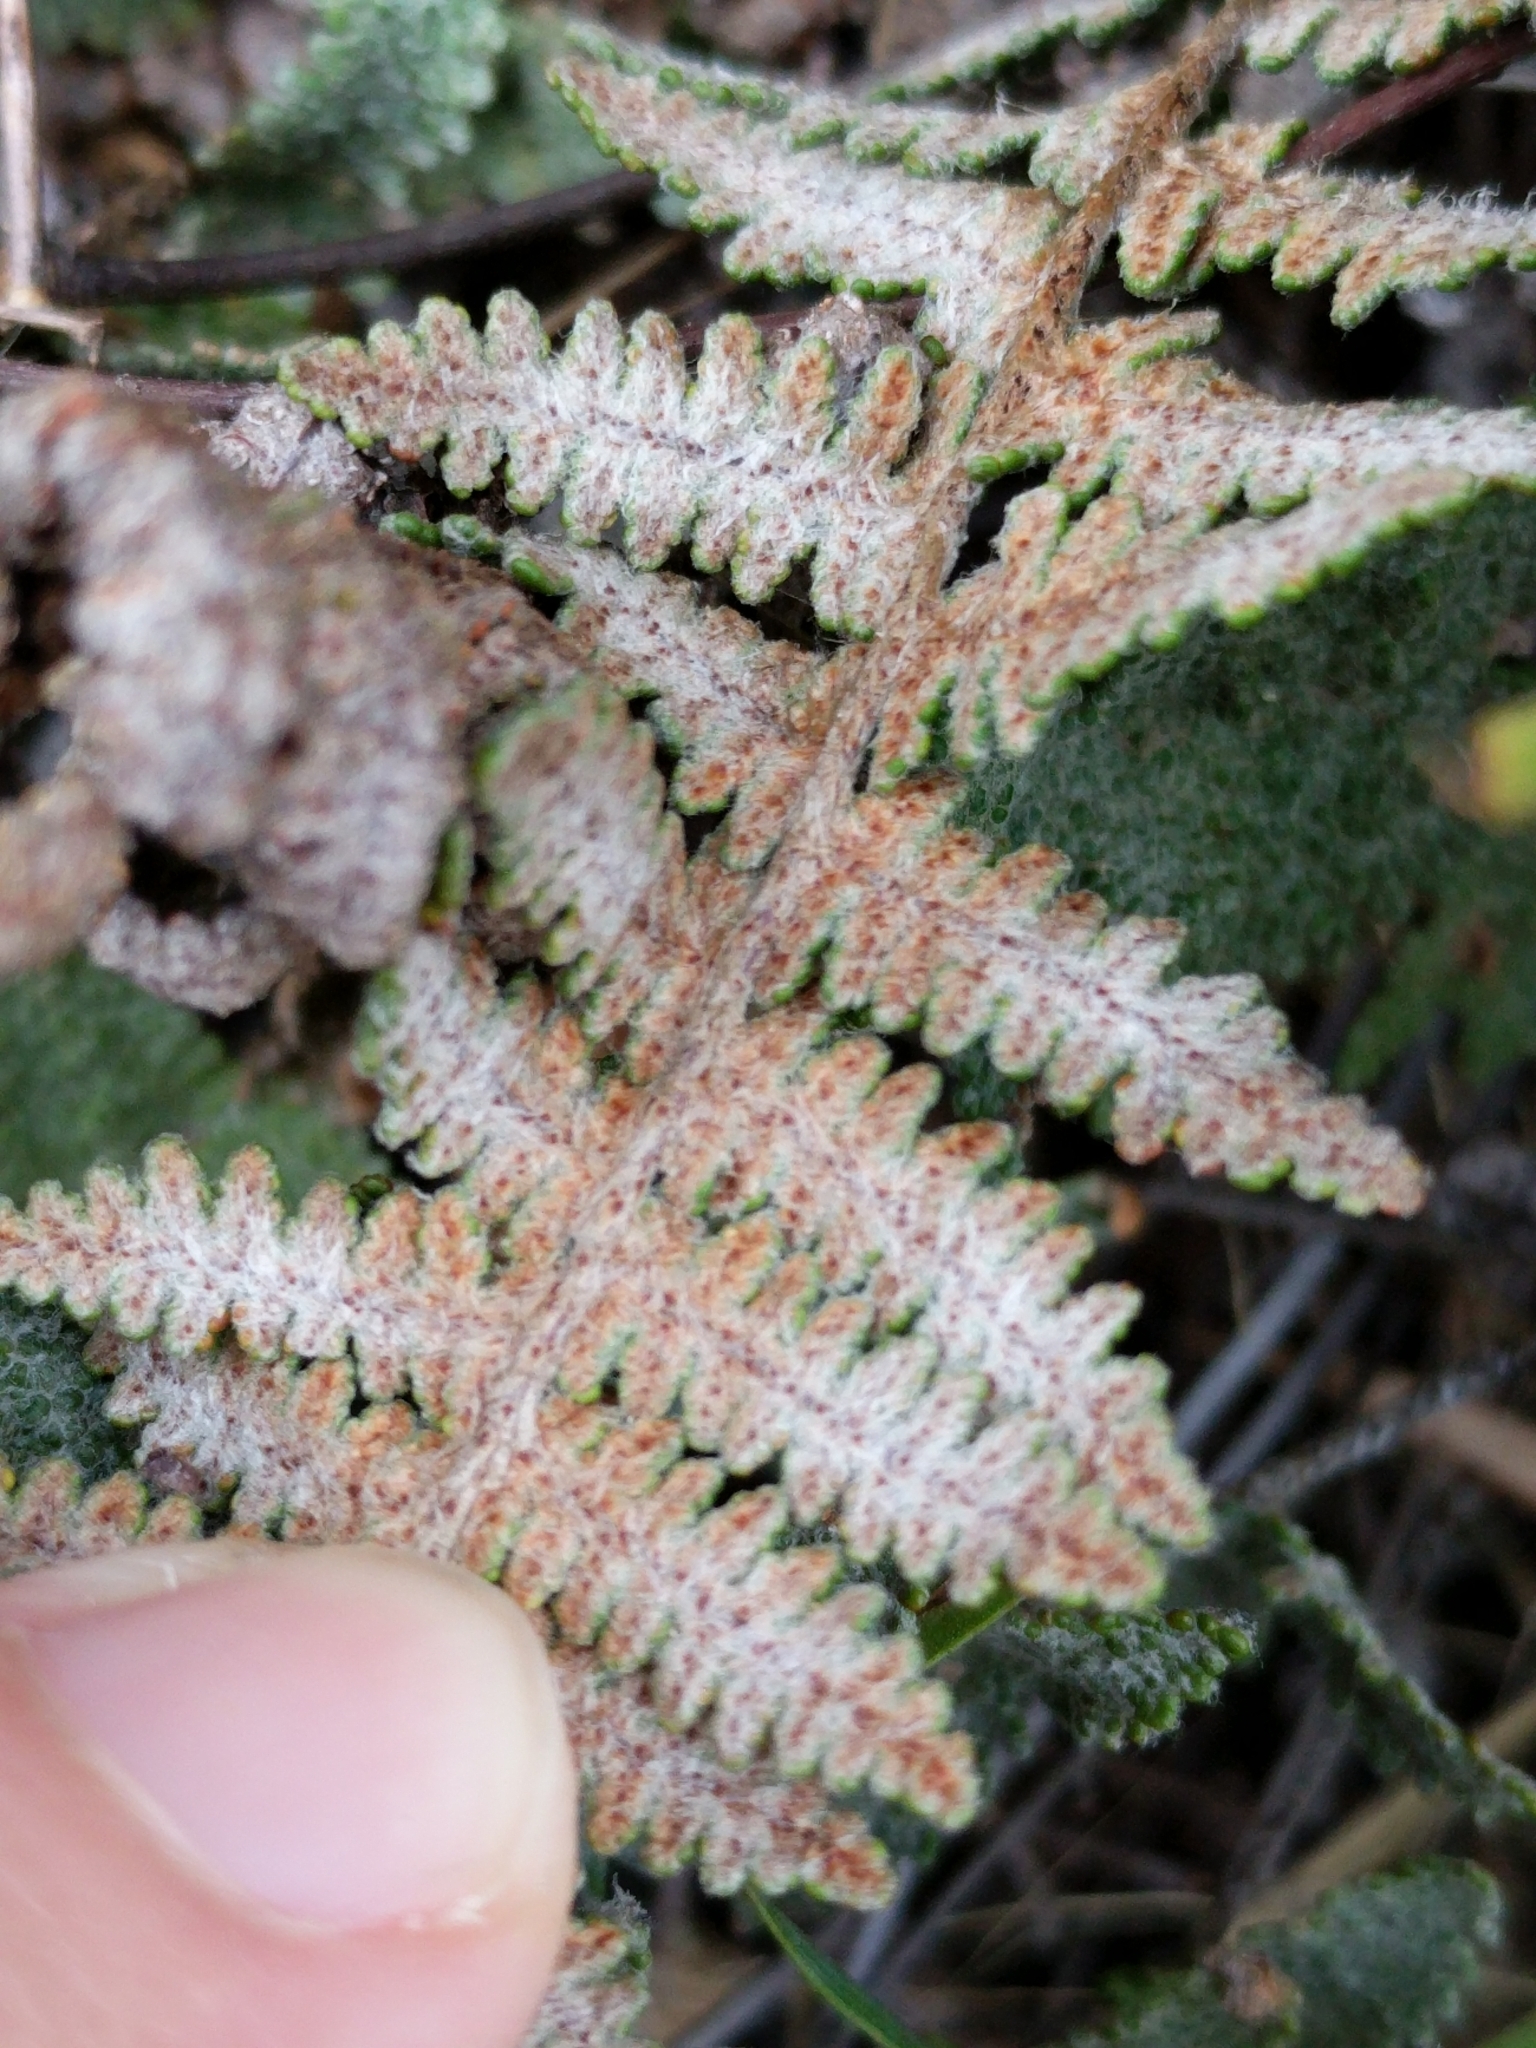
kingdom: Plantae
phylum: Tracheophyta
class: Polypodiopsida
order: Polypodiales
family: Pteridaceae
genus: Myriopteris
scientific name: Myriopteris lindheimeri
